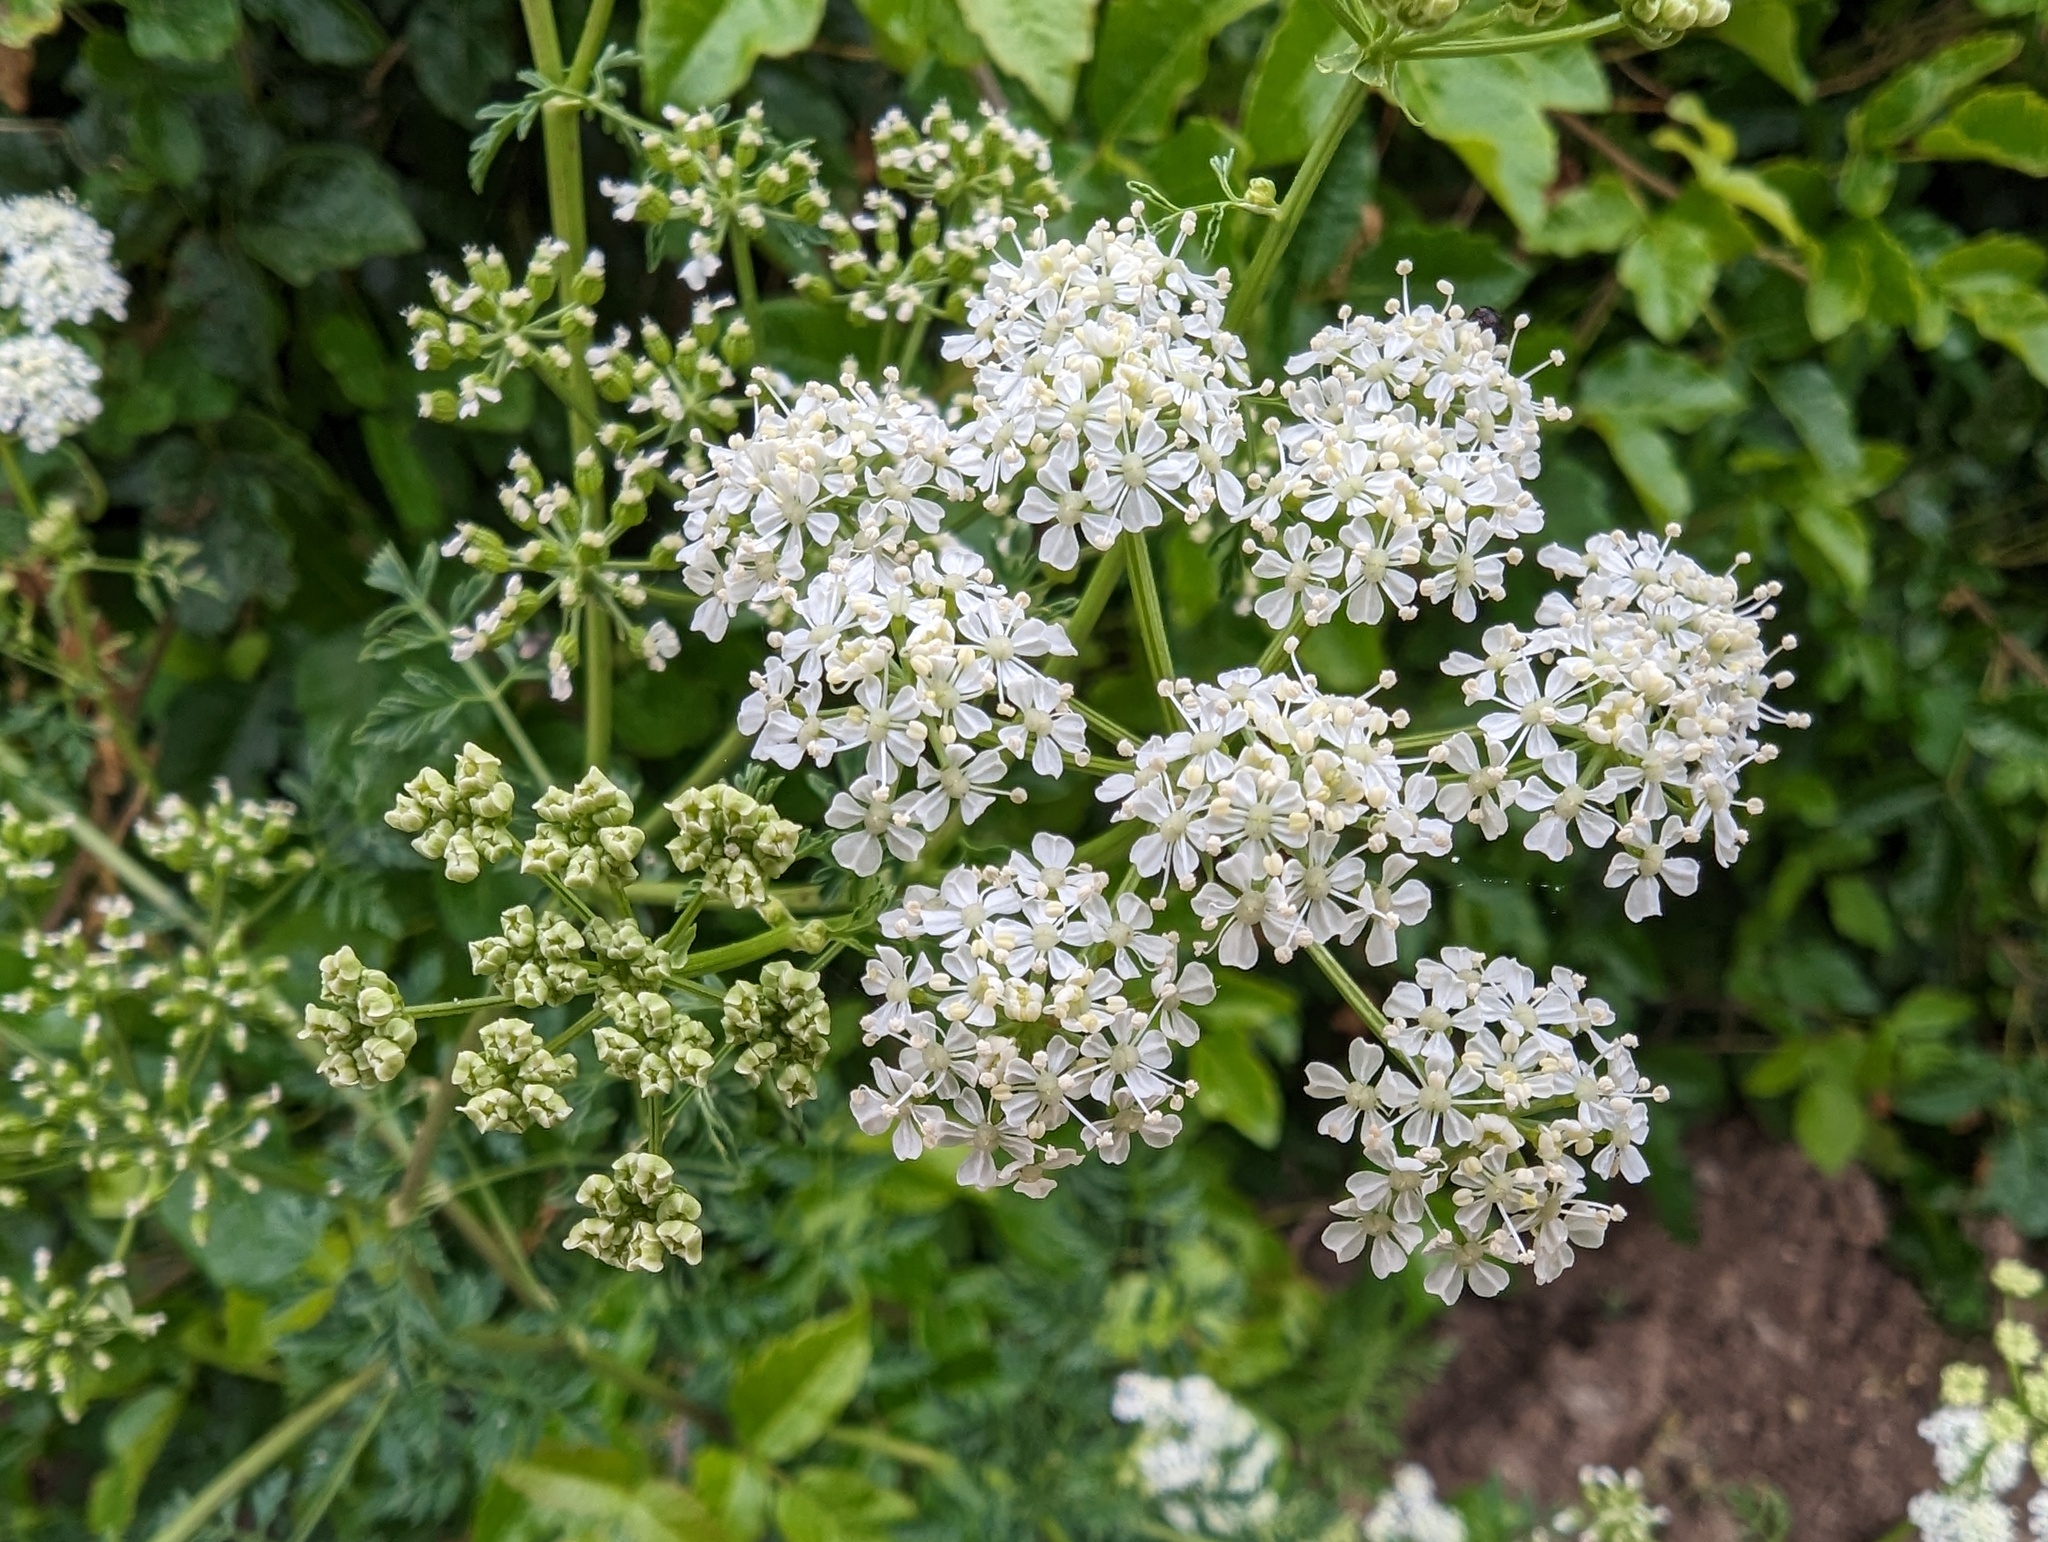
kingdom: Plantae
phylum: Tracheophyta
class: Magnoliopsida
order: Apiales
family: Apiaceae
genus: Conium
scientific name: Conium maculatum
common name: Hemlock
